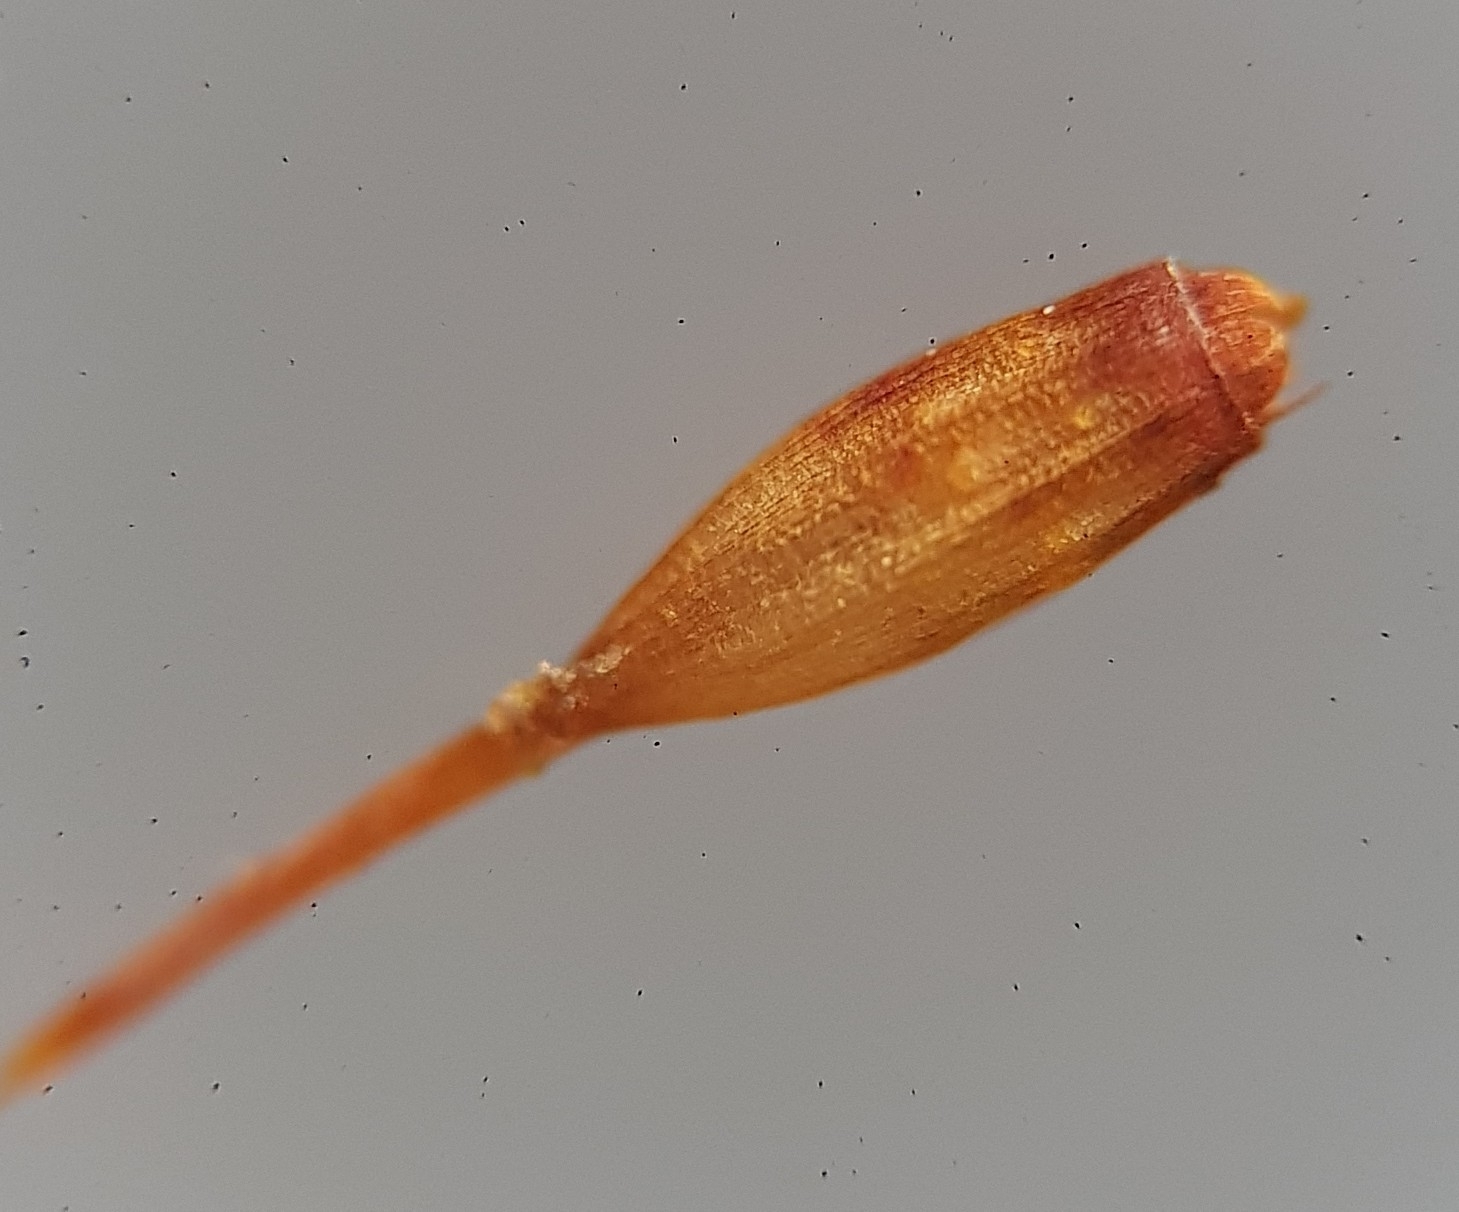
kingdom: Plantae
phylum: Bryophyta
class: Bryopsida
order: Orthotrichales
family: Orthotrichaceae
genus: Orthotrichum
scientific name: Orthotrichum pulchellum
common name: Elegant bristle-moss
